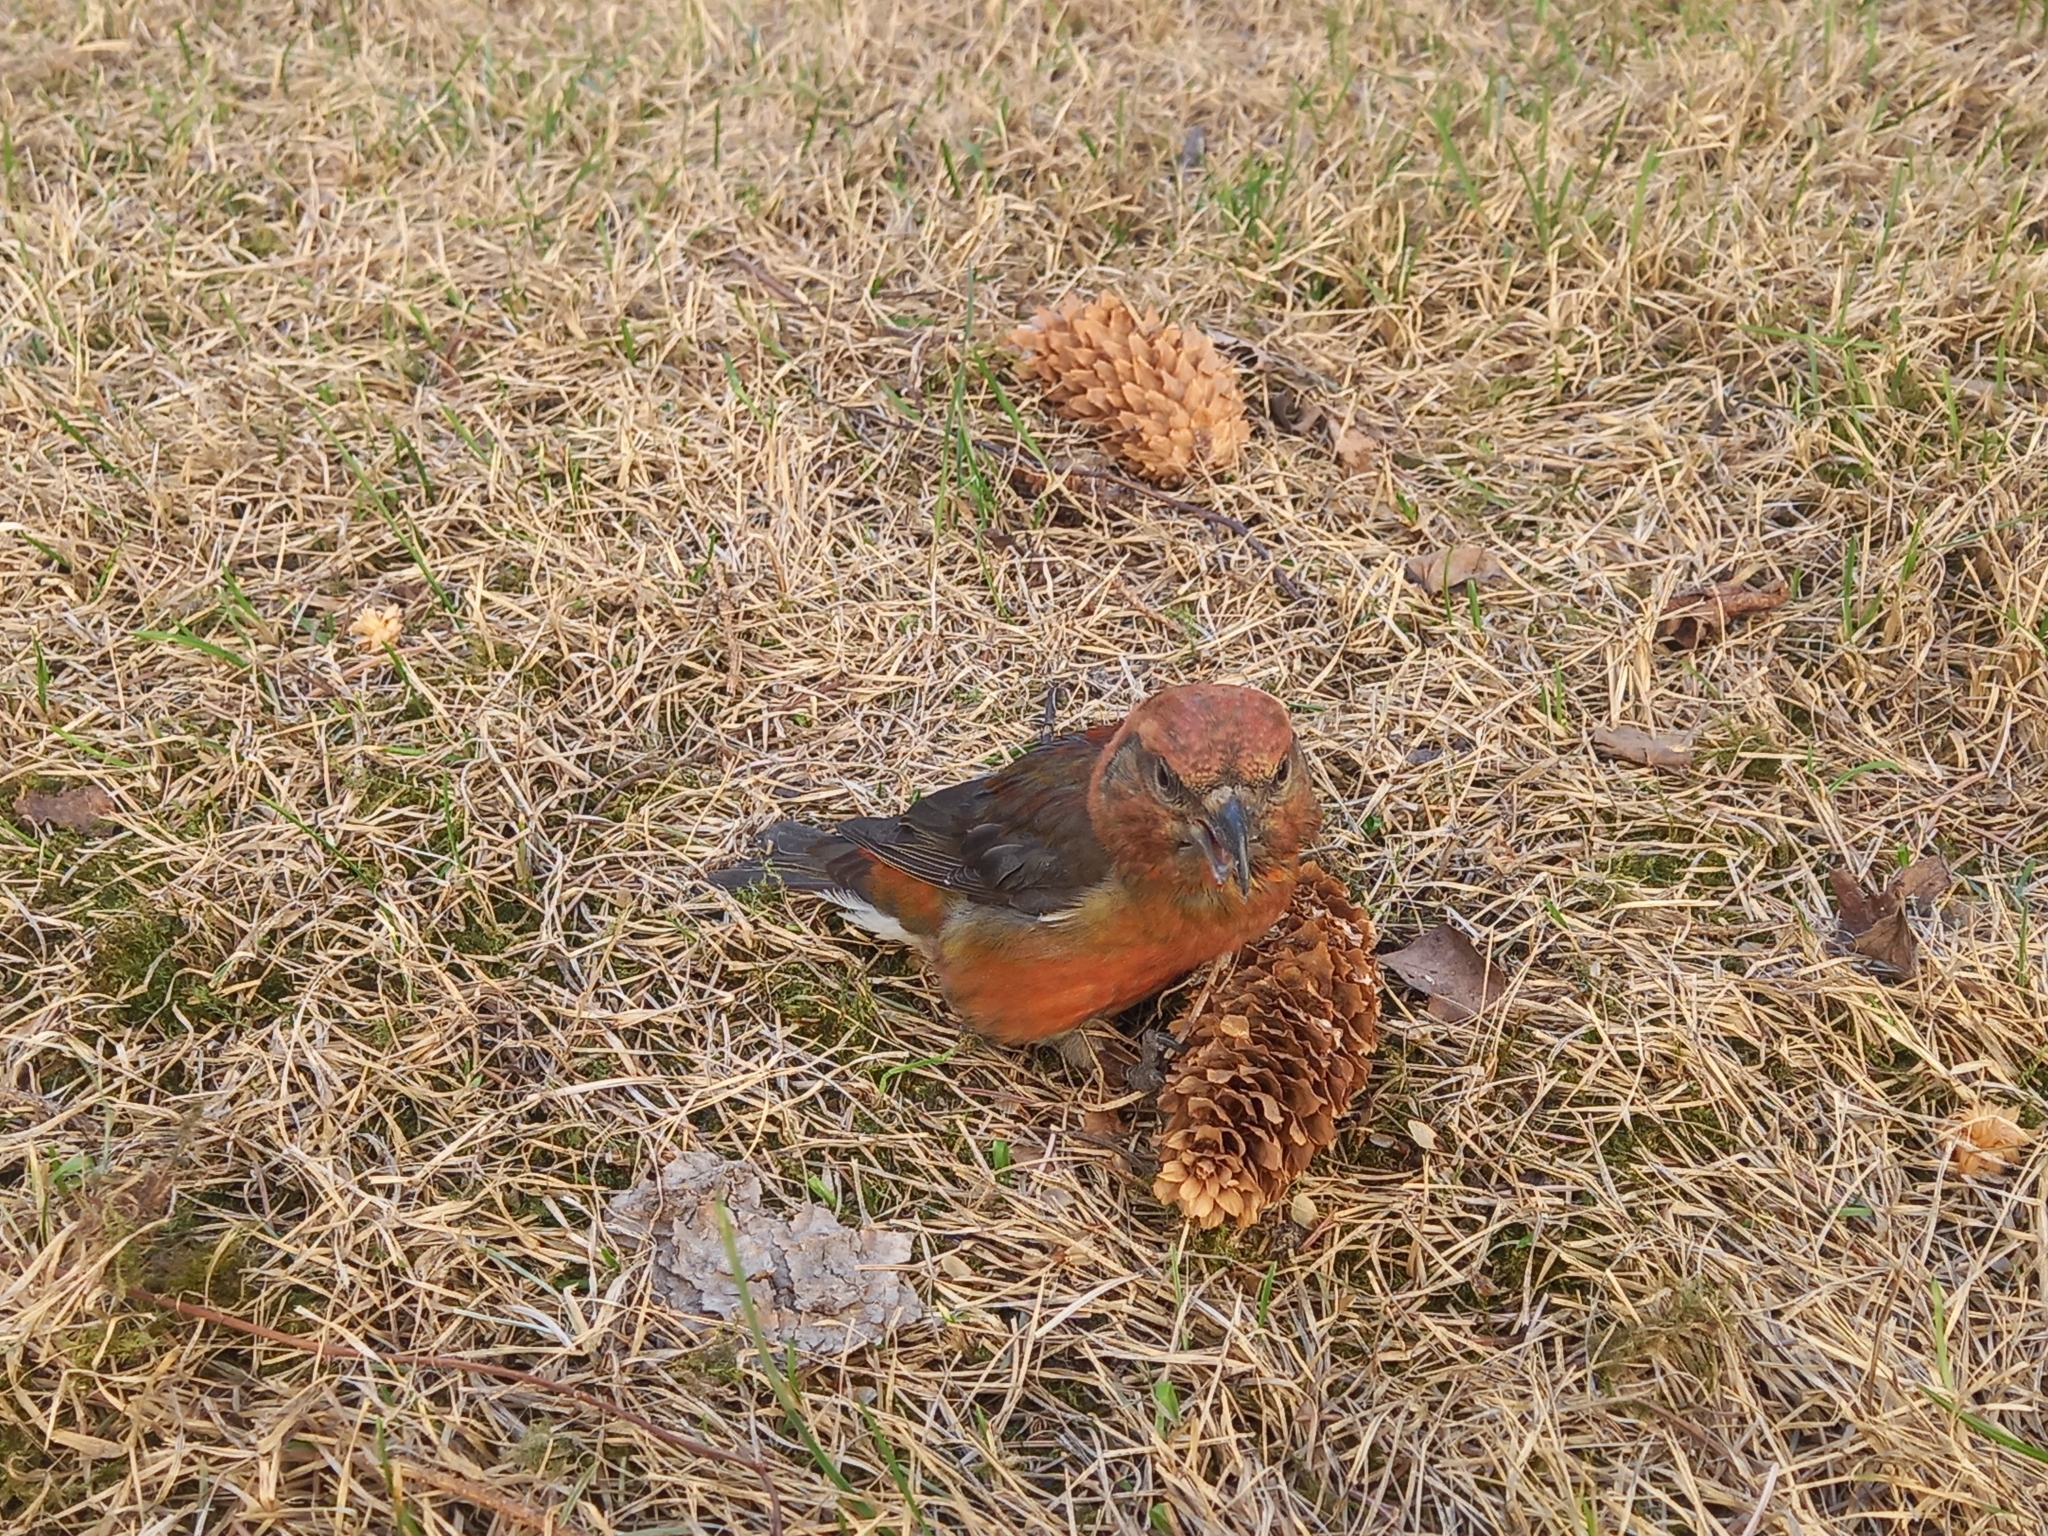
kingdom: Animalia
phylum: Chordata
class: Aves
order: Passeriformes
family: Fringillidae
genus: Loxia
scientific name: Loxia curvirostra
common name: Red crossbill
